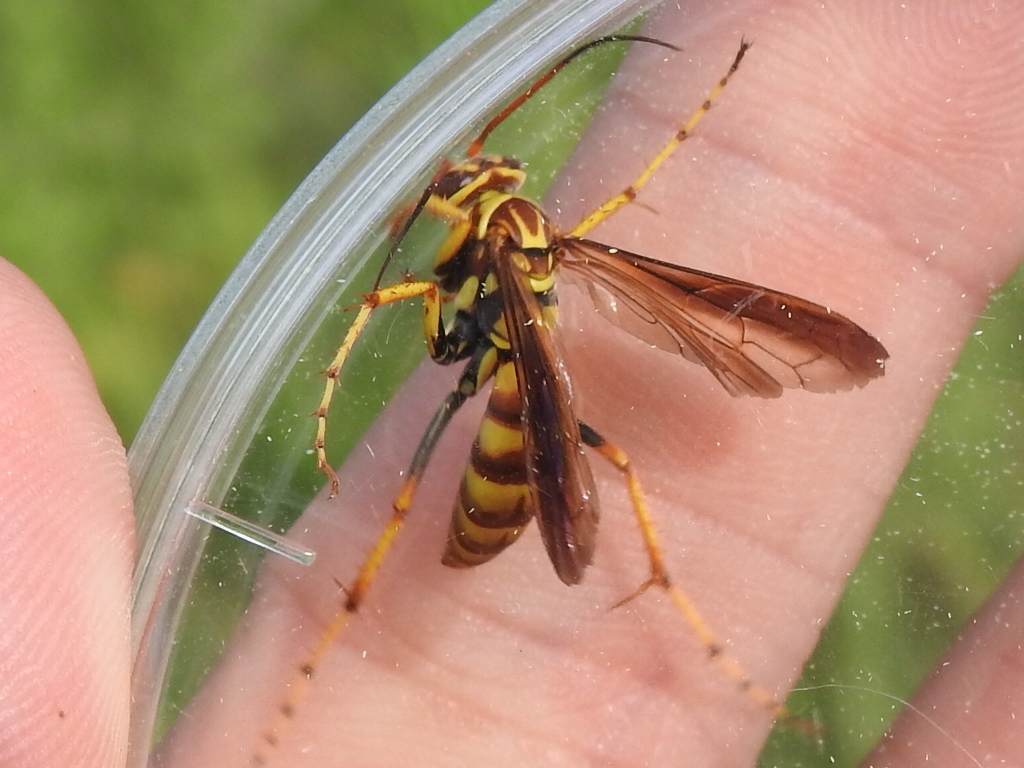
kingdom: Animalia
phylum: Arthropoda
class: Insecta
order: Hymenoptera
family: Pompilidae
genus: Poecilopompilus
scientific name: Poecilopompilus interruptus
